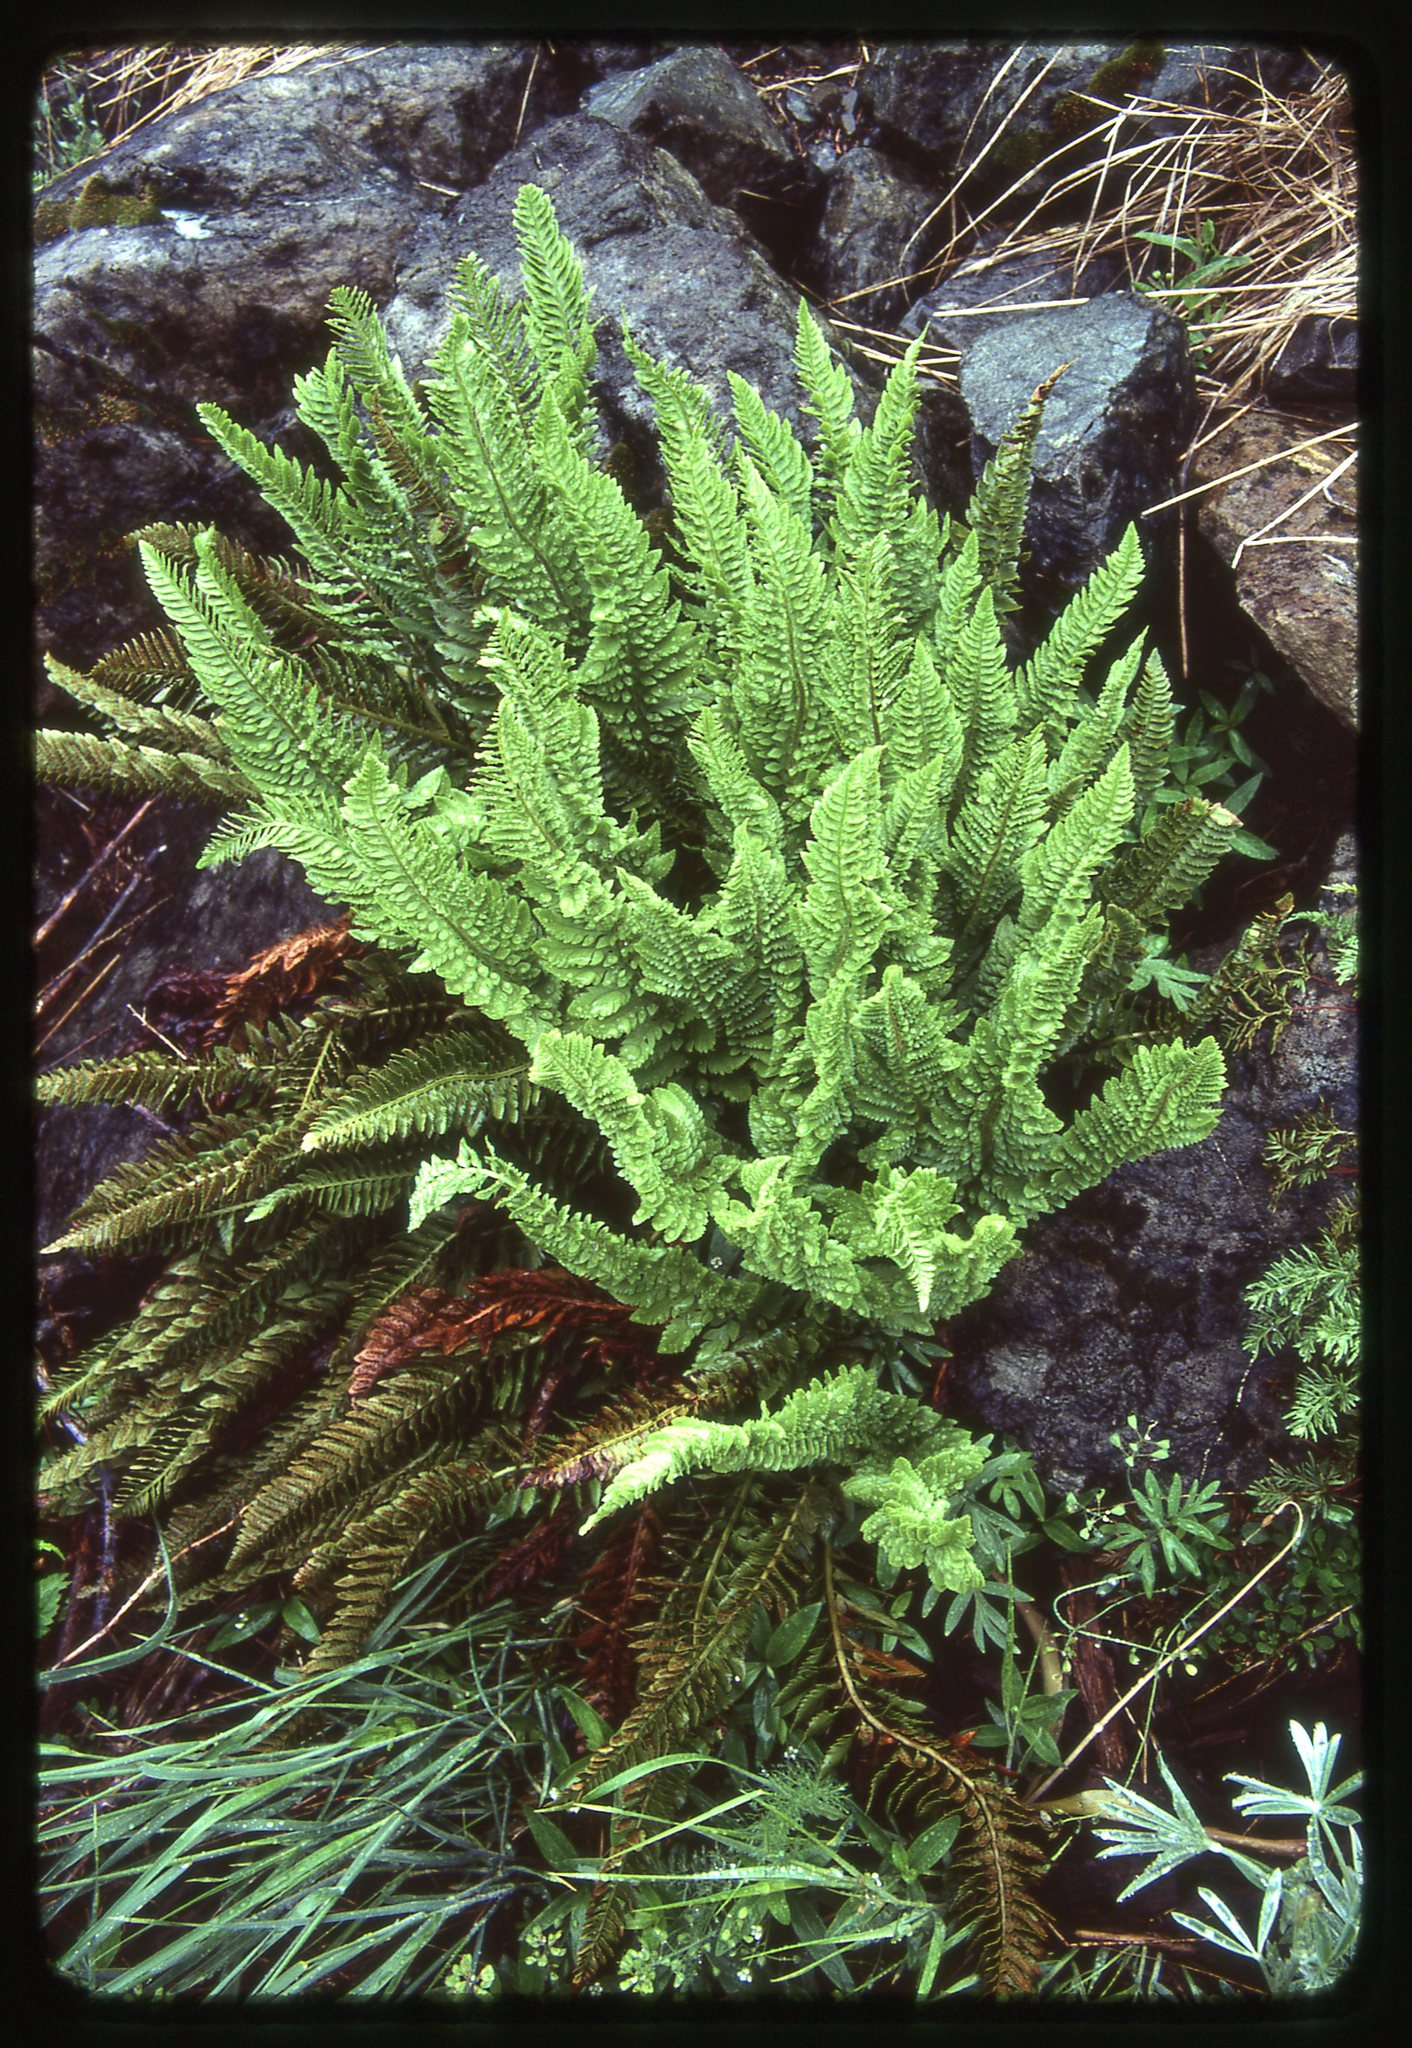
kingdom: Plantae
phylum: Tracheophyta
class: Polypodiopsida
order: Polypodiales
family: Dryopteridaceae
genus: Polystichum
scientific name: Polystichum scopulinum
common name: Eaton's shield fern
